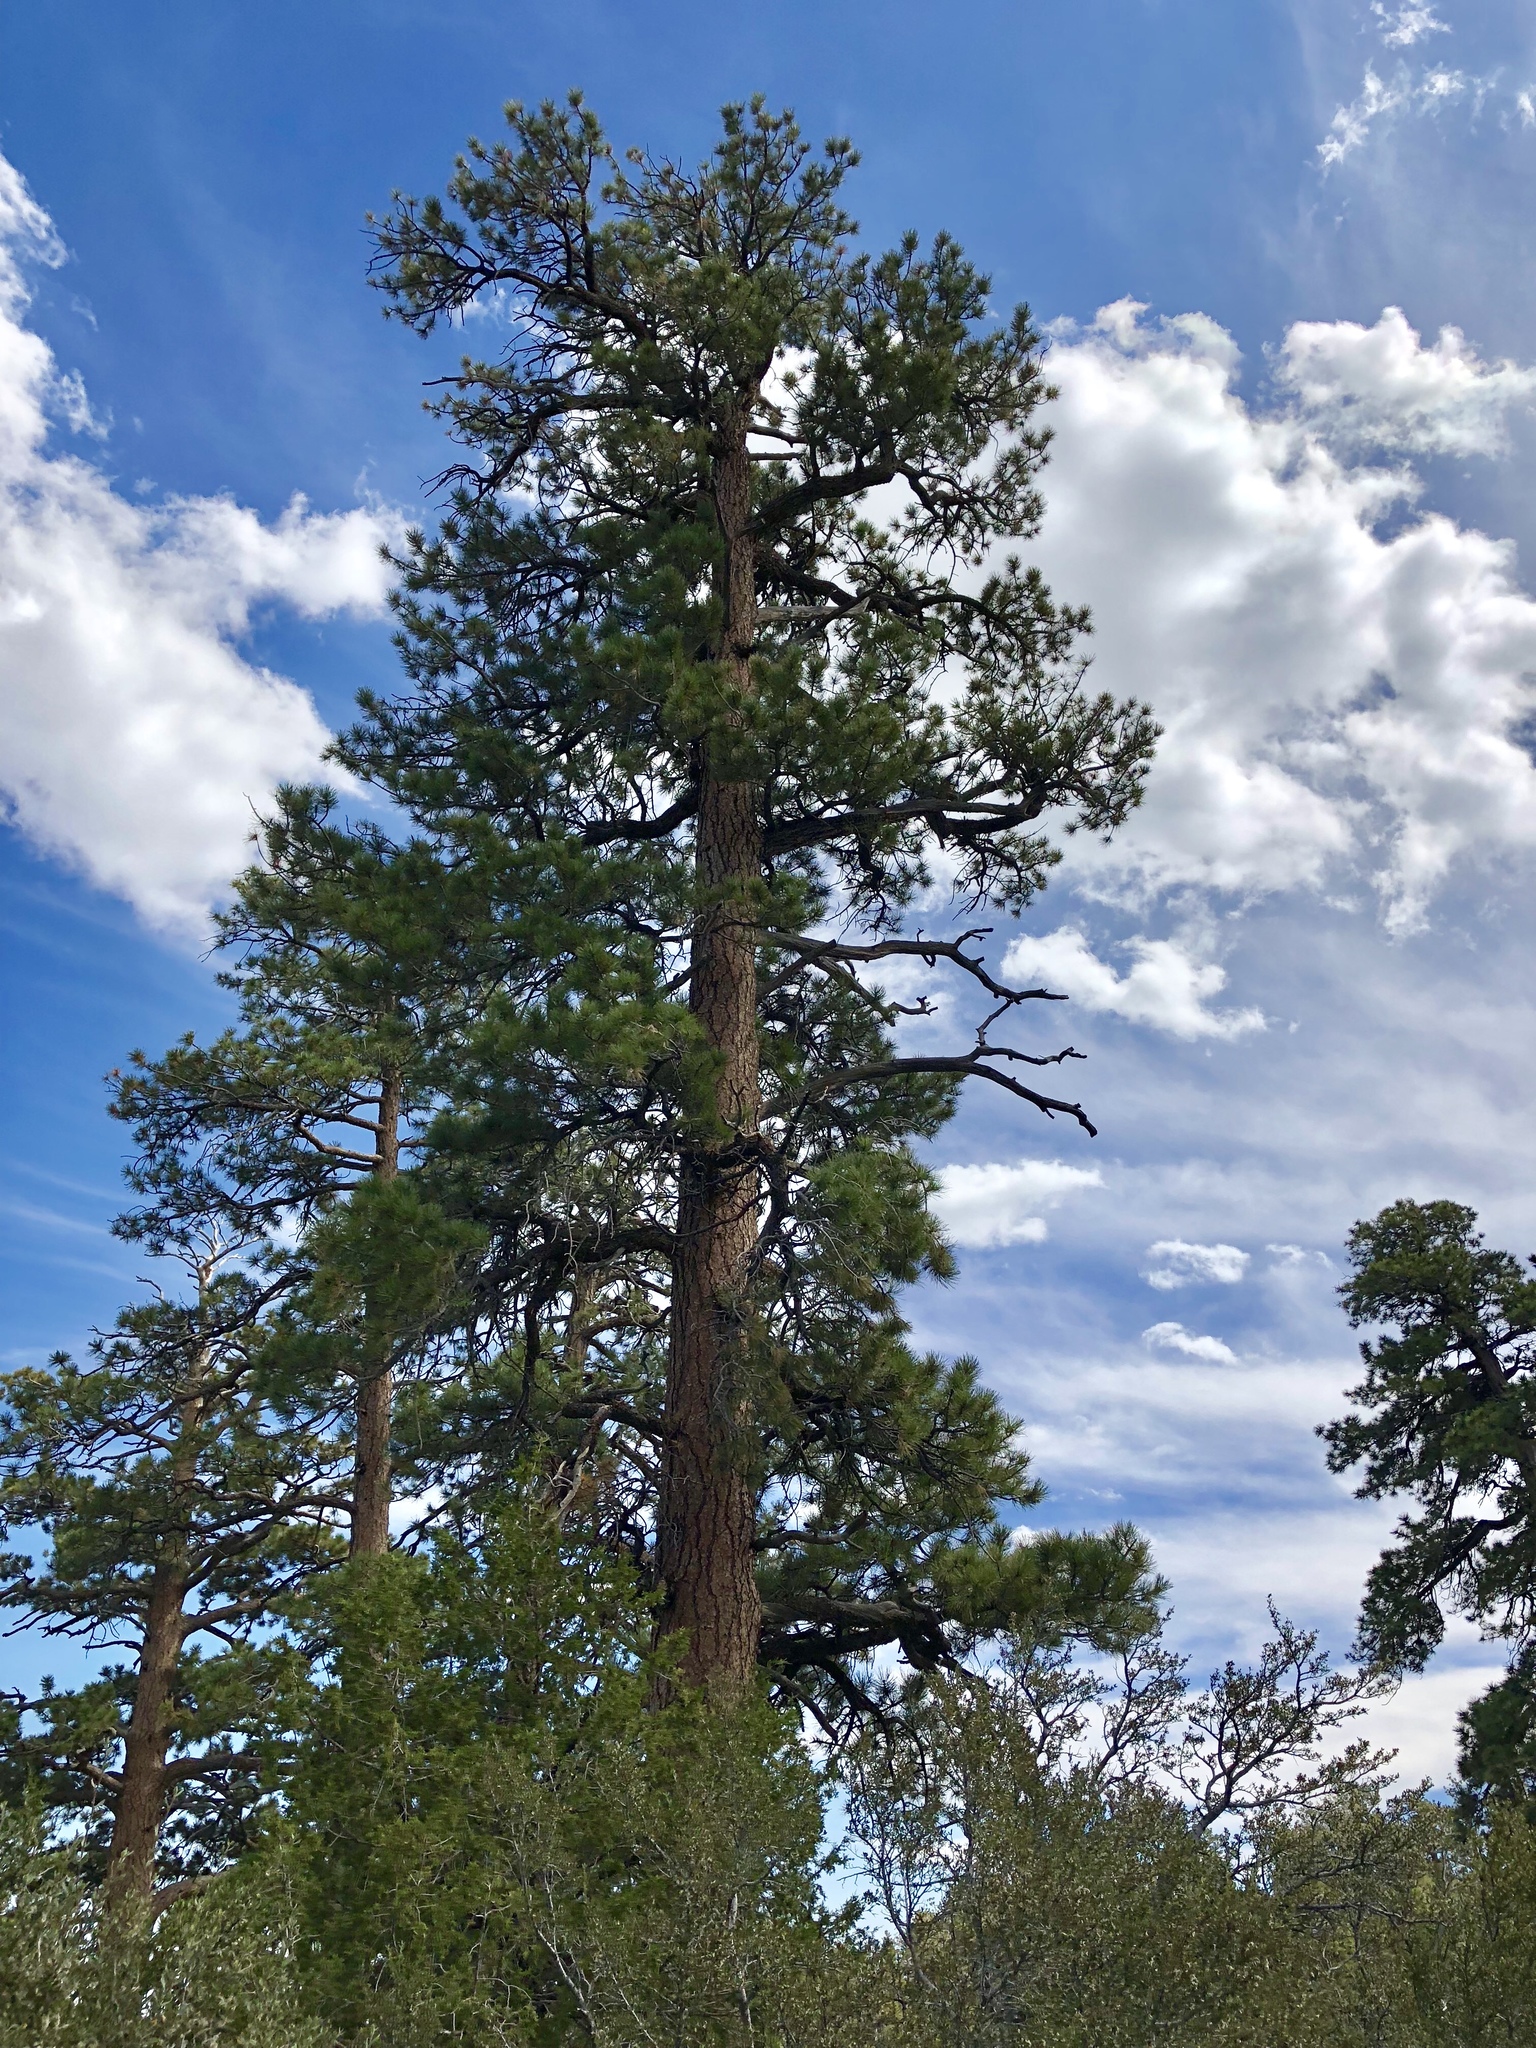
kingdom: Plantae
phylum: Tracheophyta
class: Pinopsida
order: Pinales
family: Pinaceae
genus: Pinus
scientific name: Pinus ponderosa
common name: Western yellow-pine
